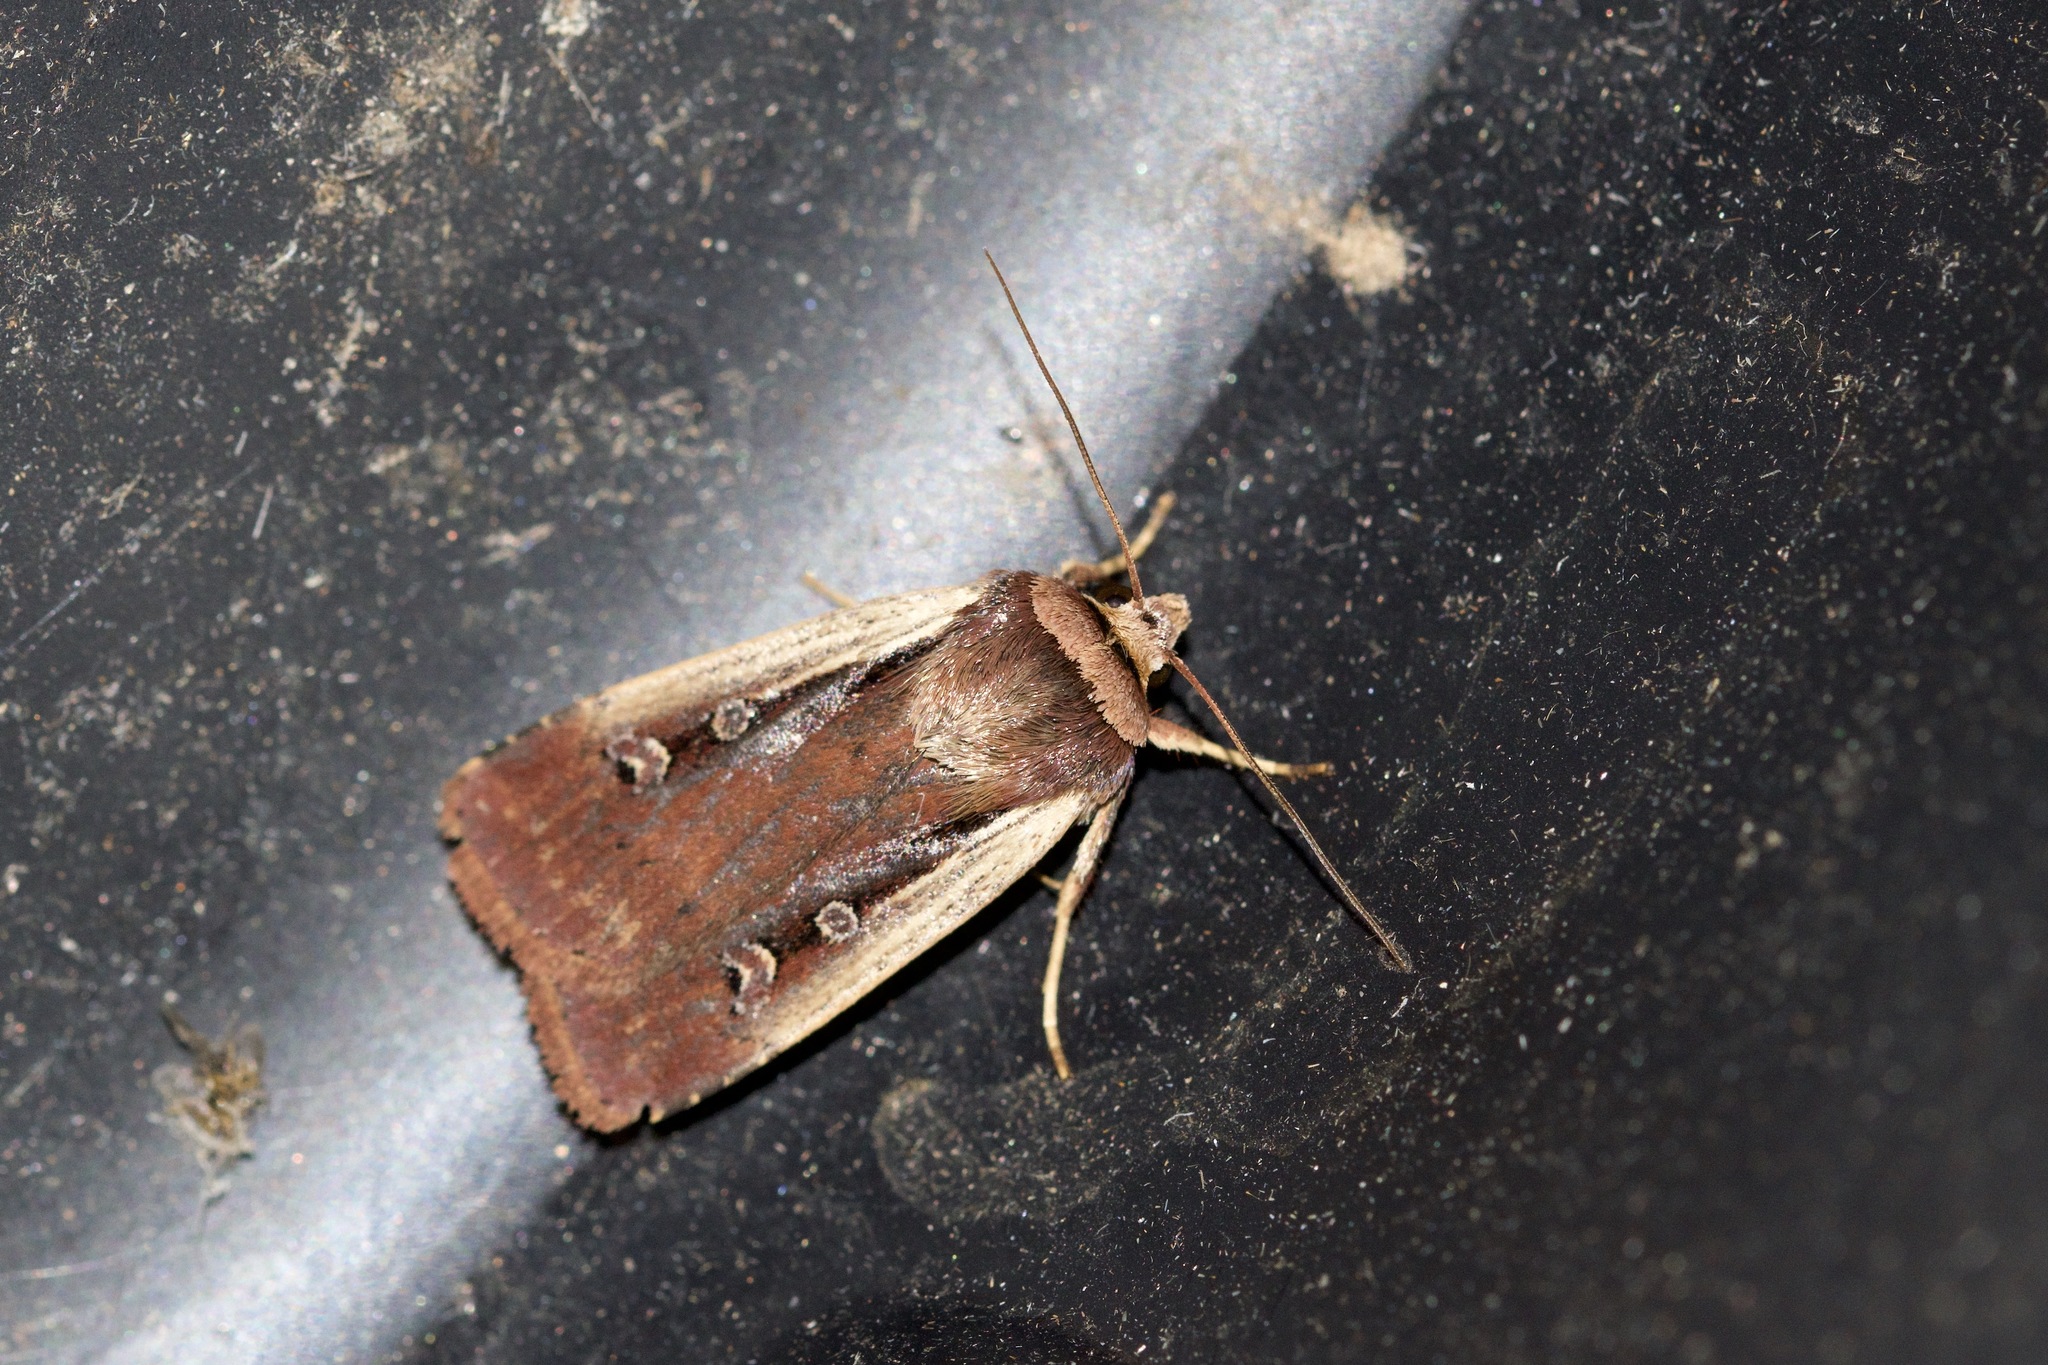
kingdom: Animalia
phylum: Arthropoda
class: Insecta
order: Lepidoptera
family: Noctuidae
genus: Ochropleura
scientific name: Ochropleura implecta
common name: Flame-shouldered dart
